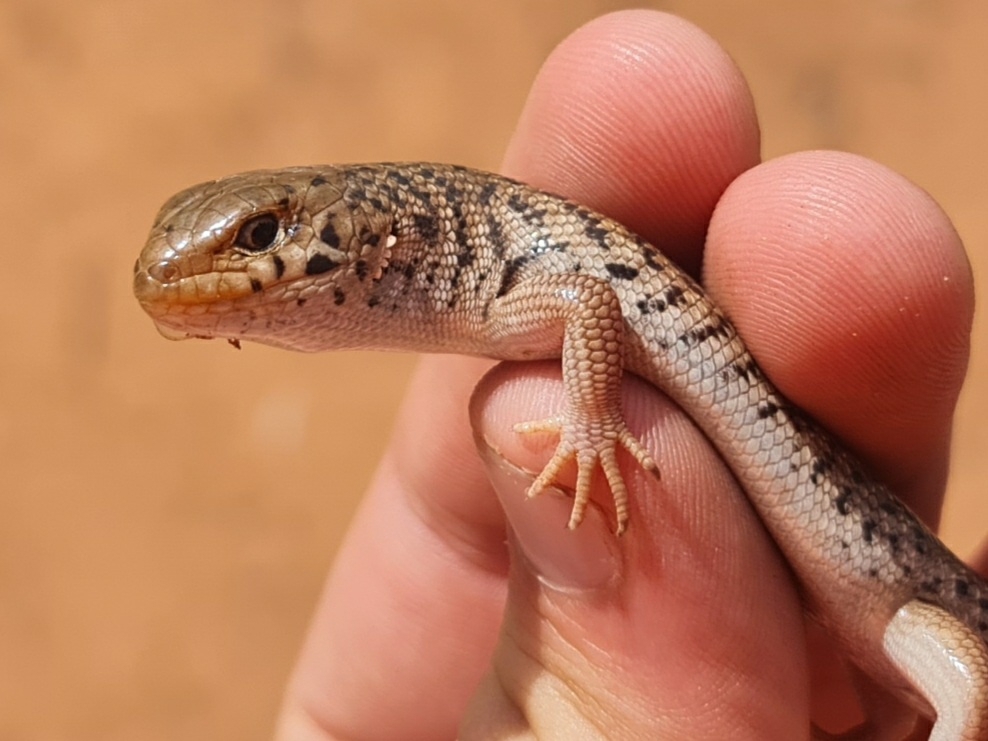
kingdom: Animalia
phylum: Chordata
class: Squamata
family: Scincidae
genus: Liopholis
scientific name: Liopholis inornata
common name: Desert skink
